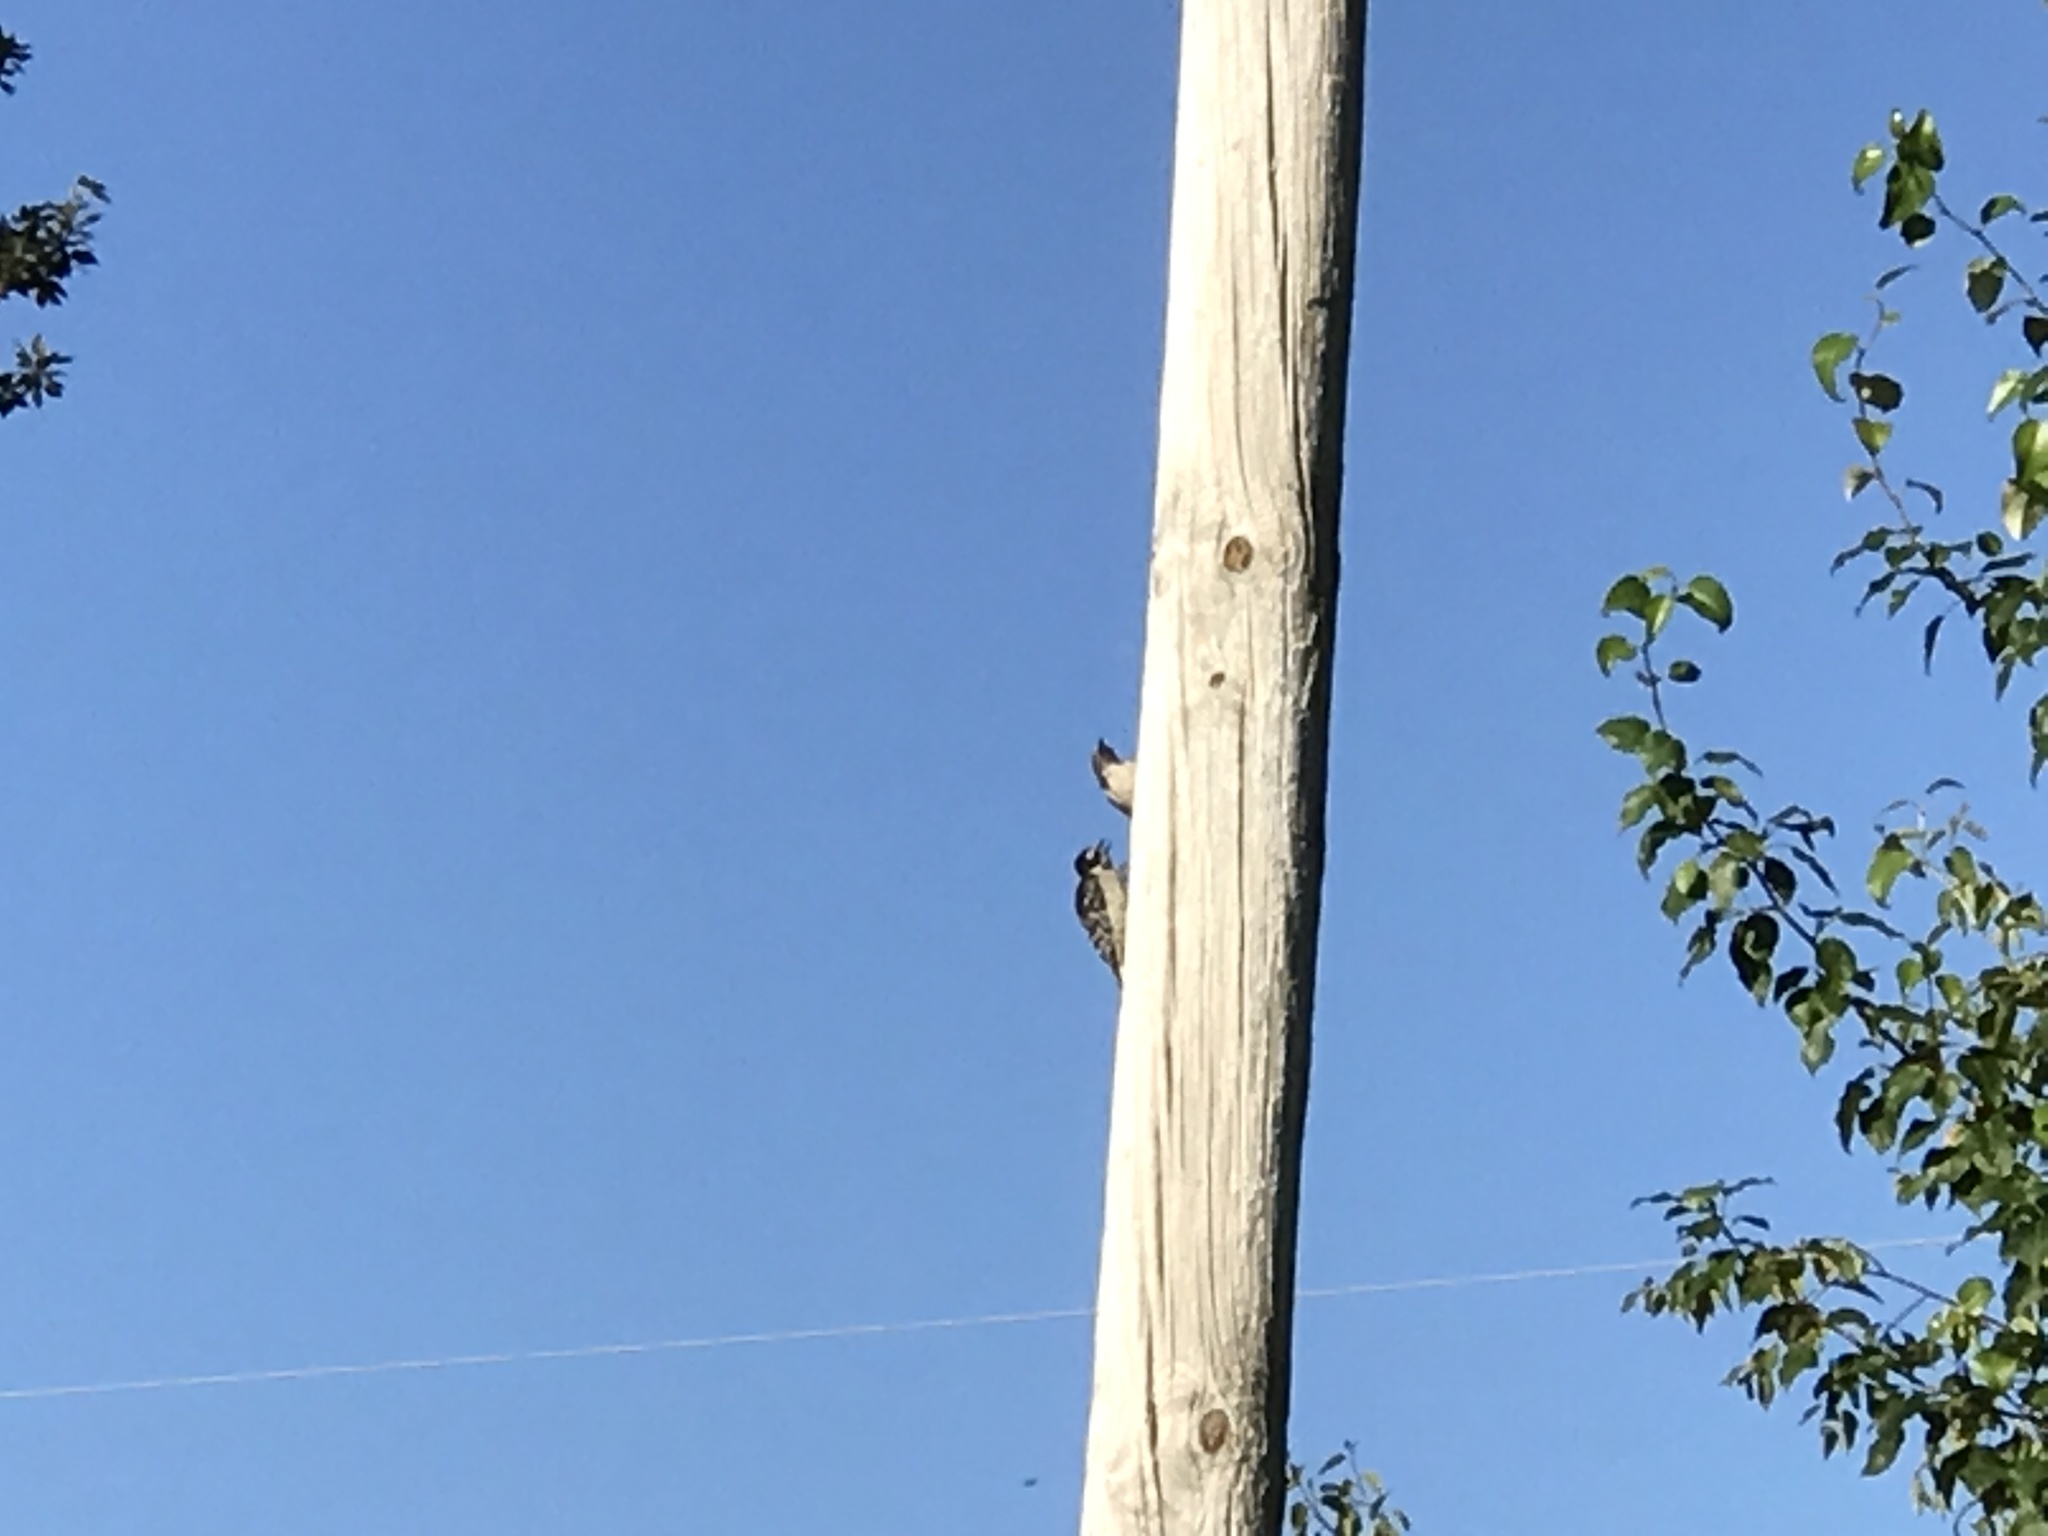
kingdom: Animalia
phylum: Chordata
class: Aves
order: Piciformes
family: Picidae
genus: Dryobates
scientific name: Dryobates pubescens
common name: Downy woodpecker
